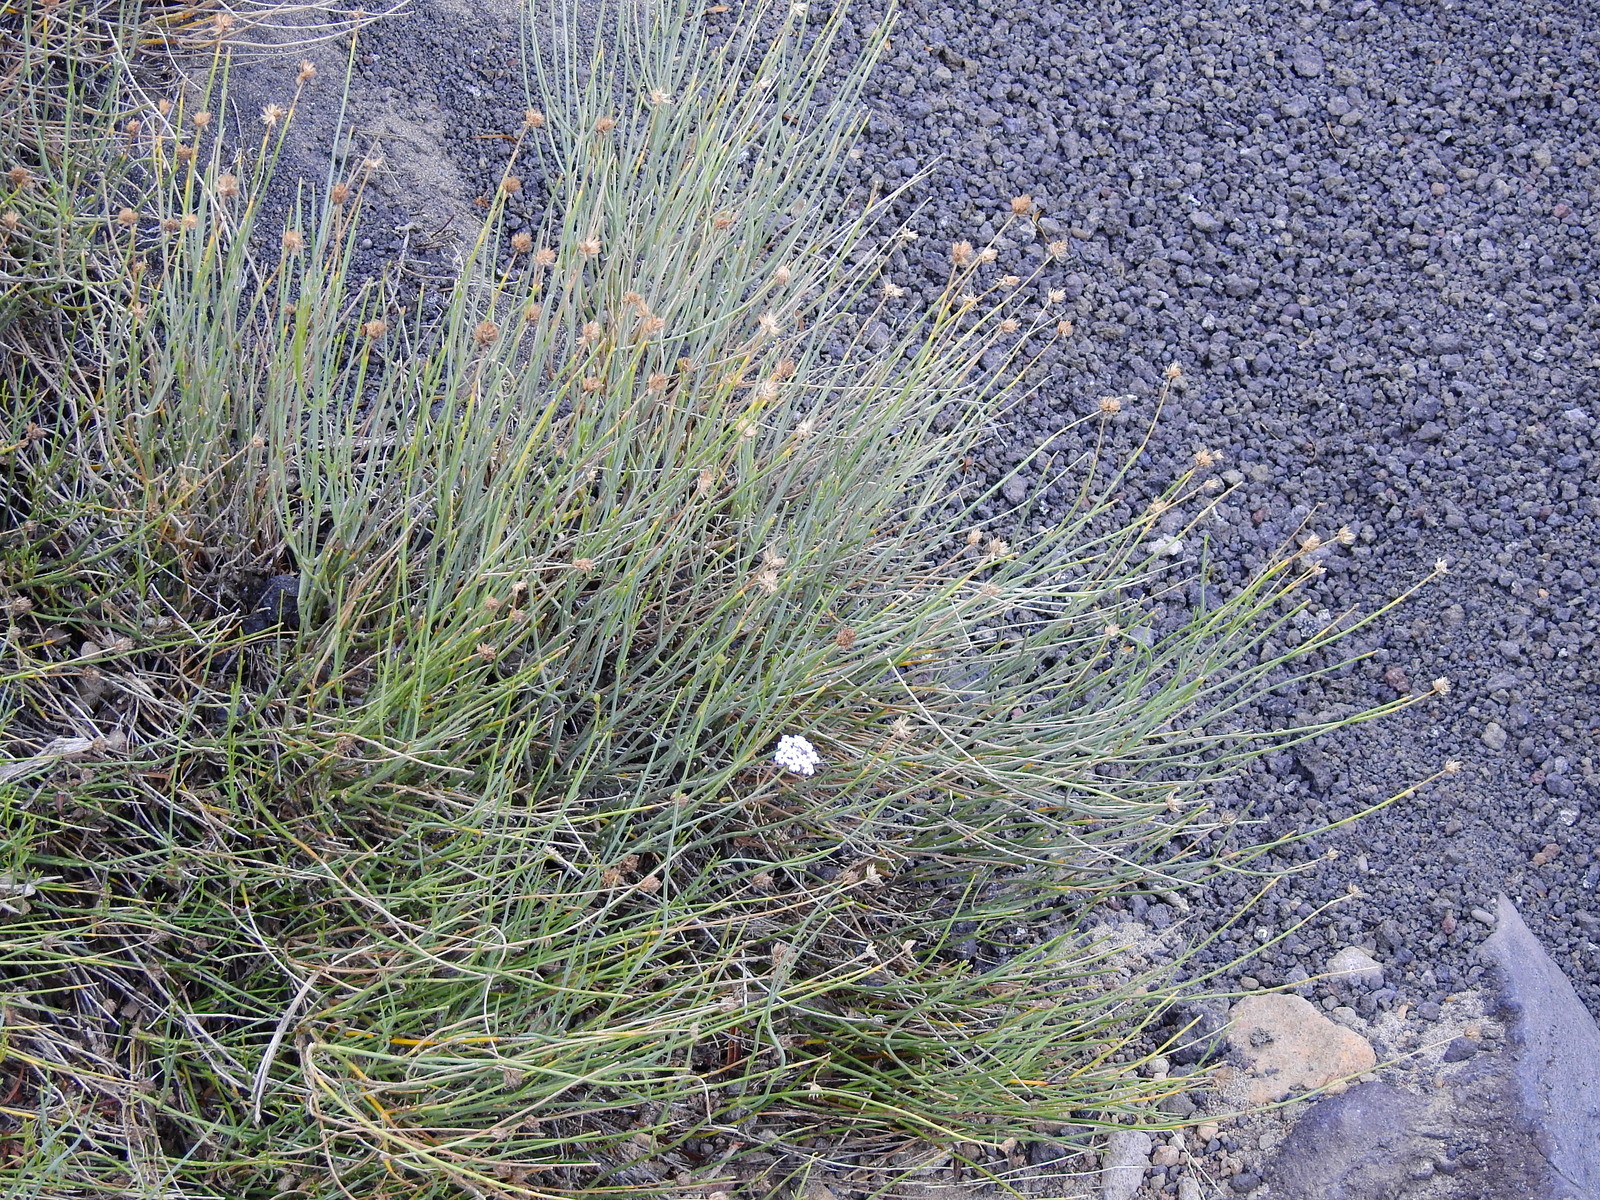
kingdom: Plantae
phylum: Tracheophyta
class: Magnoliopsida
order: Lamiales
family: Verbenaceae
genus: Junellia
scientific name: Junellia spathulata
